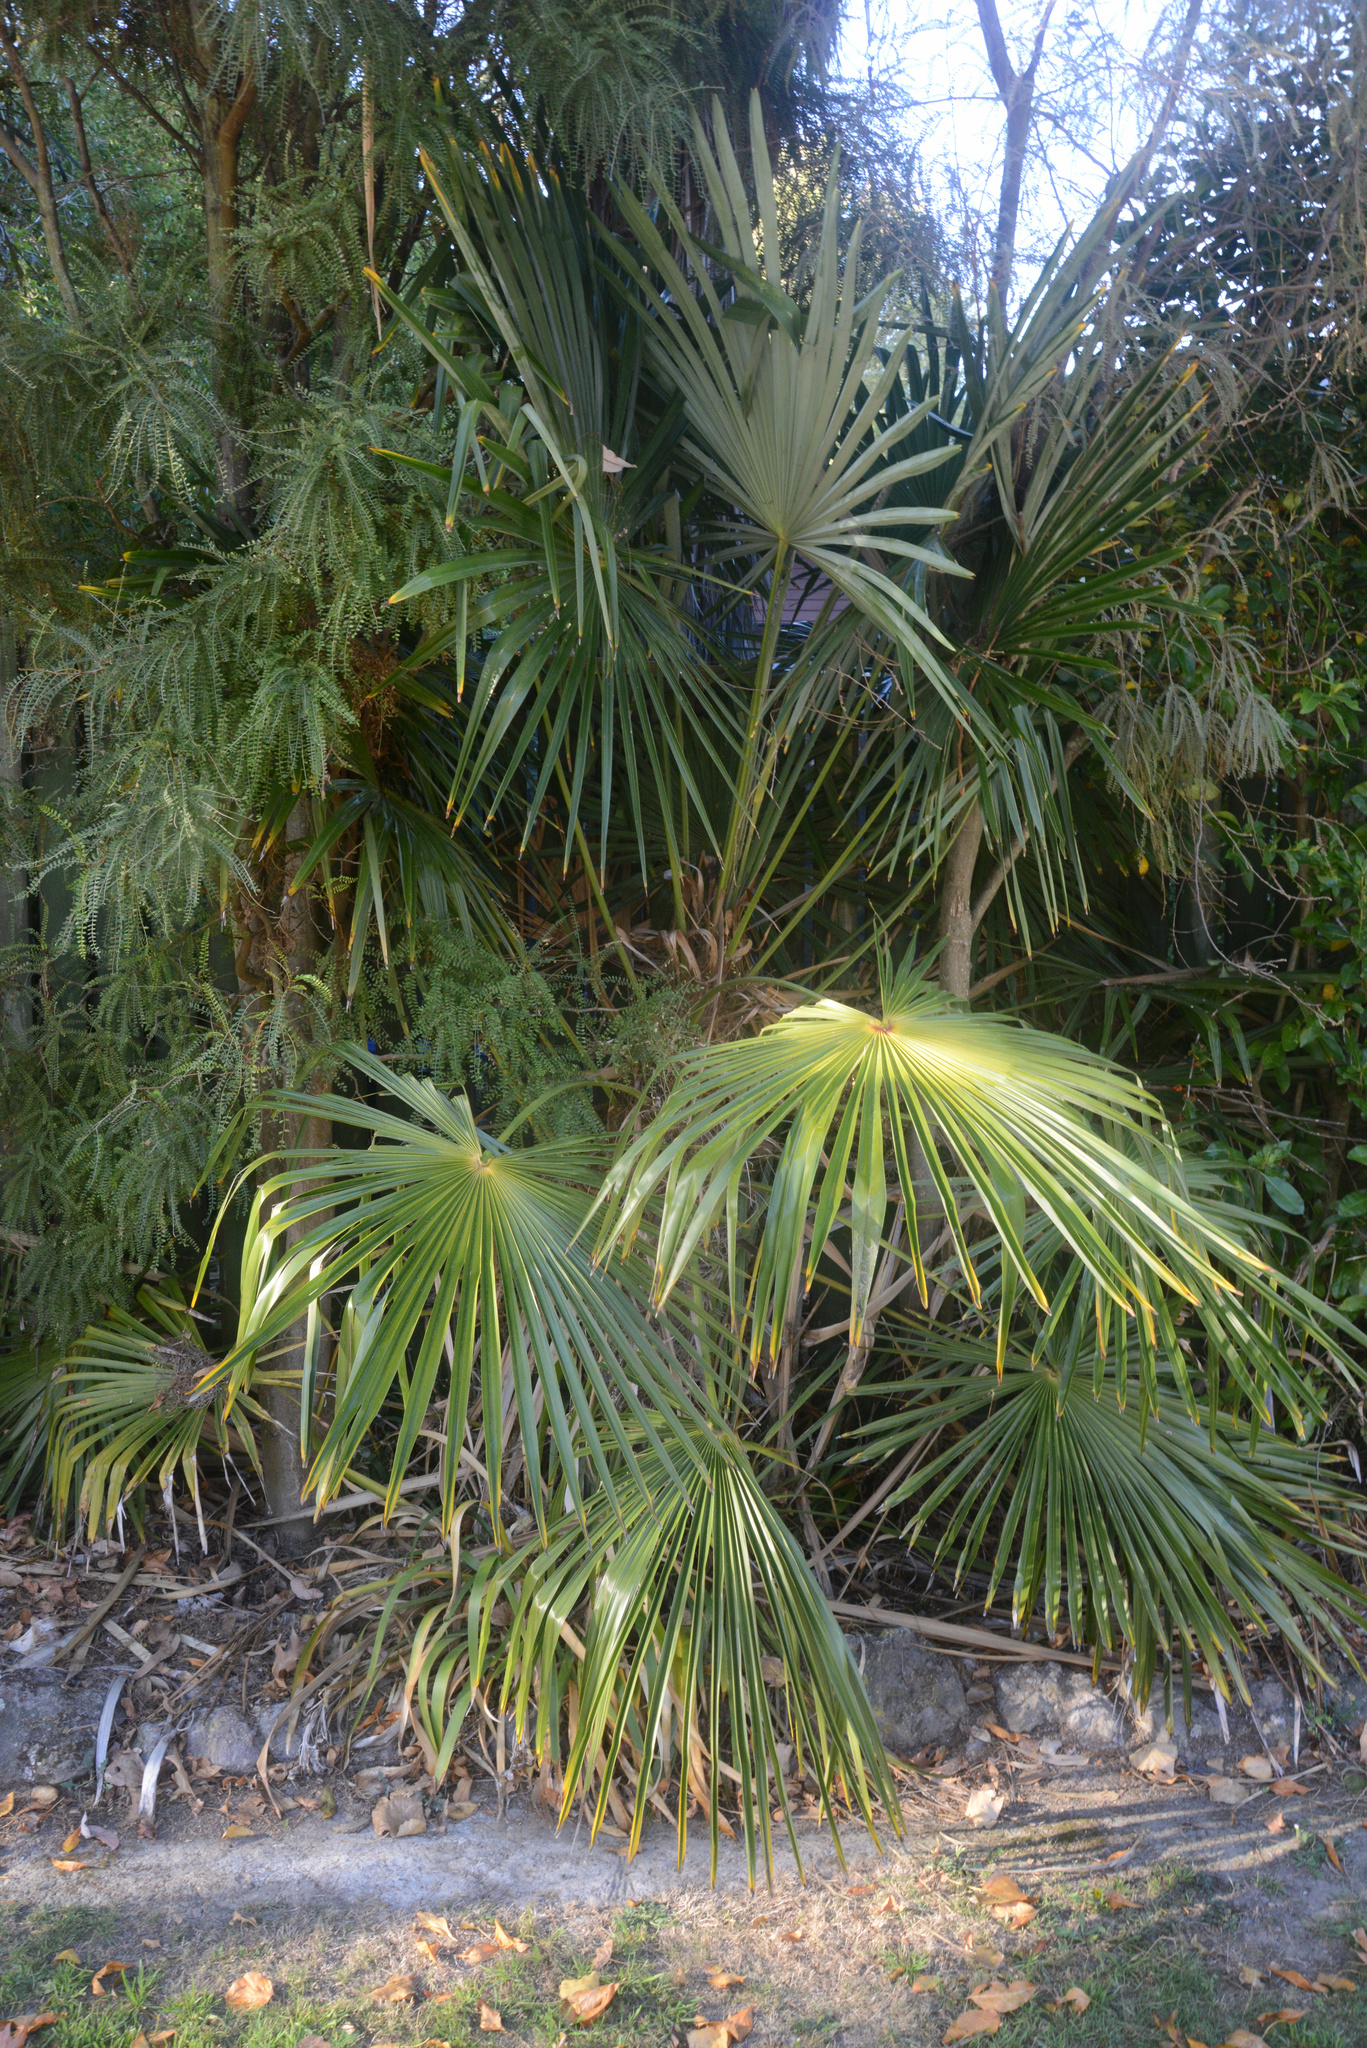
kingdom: Plantae
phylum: Tracheophyta
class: Liliopsida
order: Arecales
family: Arecaceae
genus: Trachycarpus
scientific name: Trachycarpus fortunei
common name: Chusan palm
